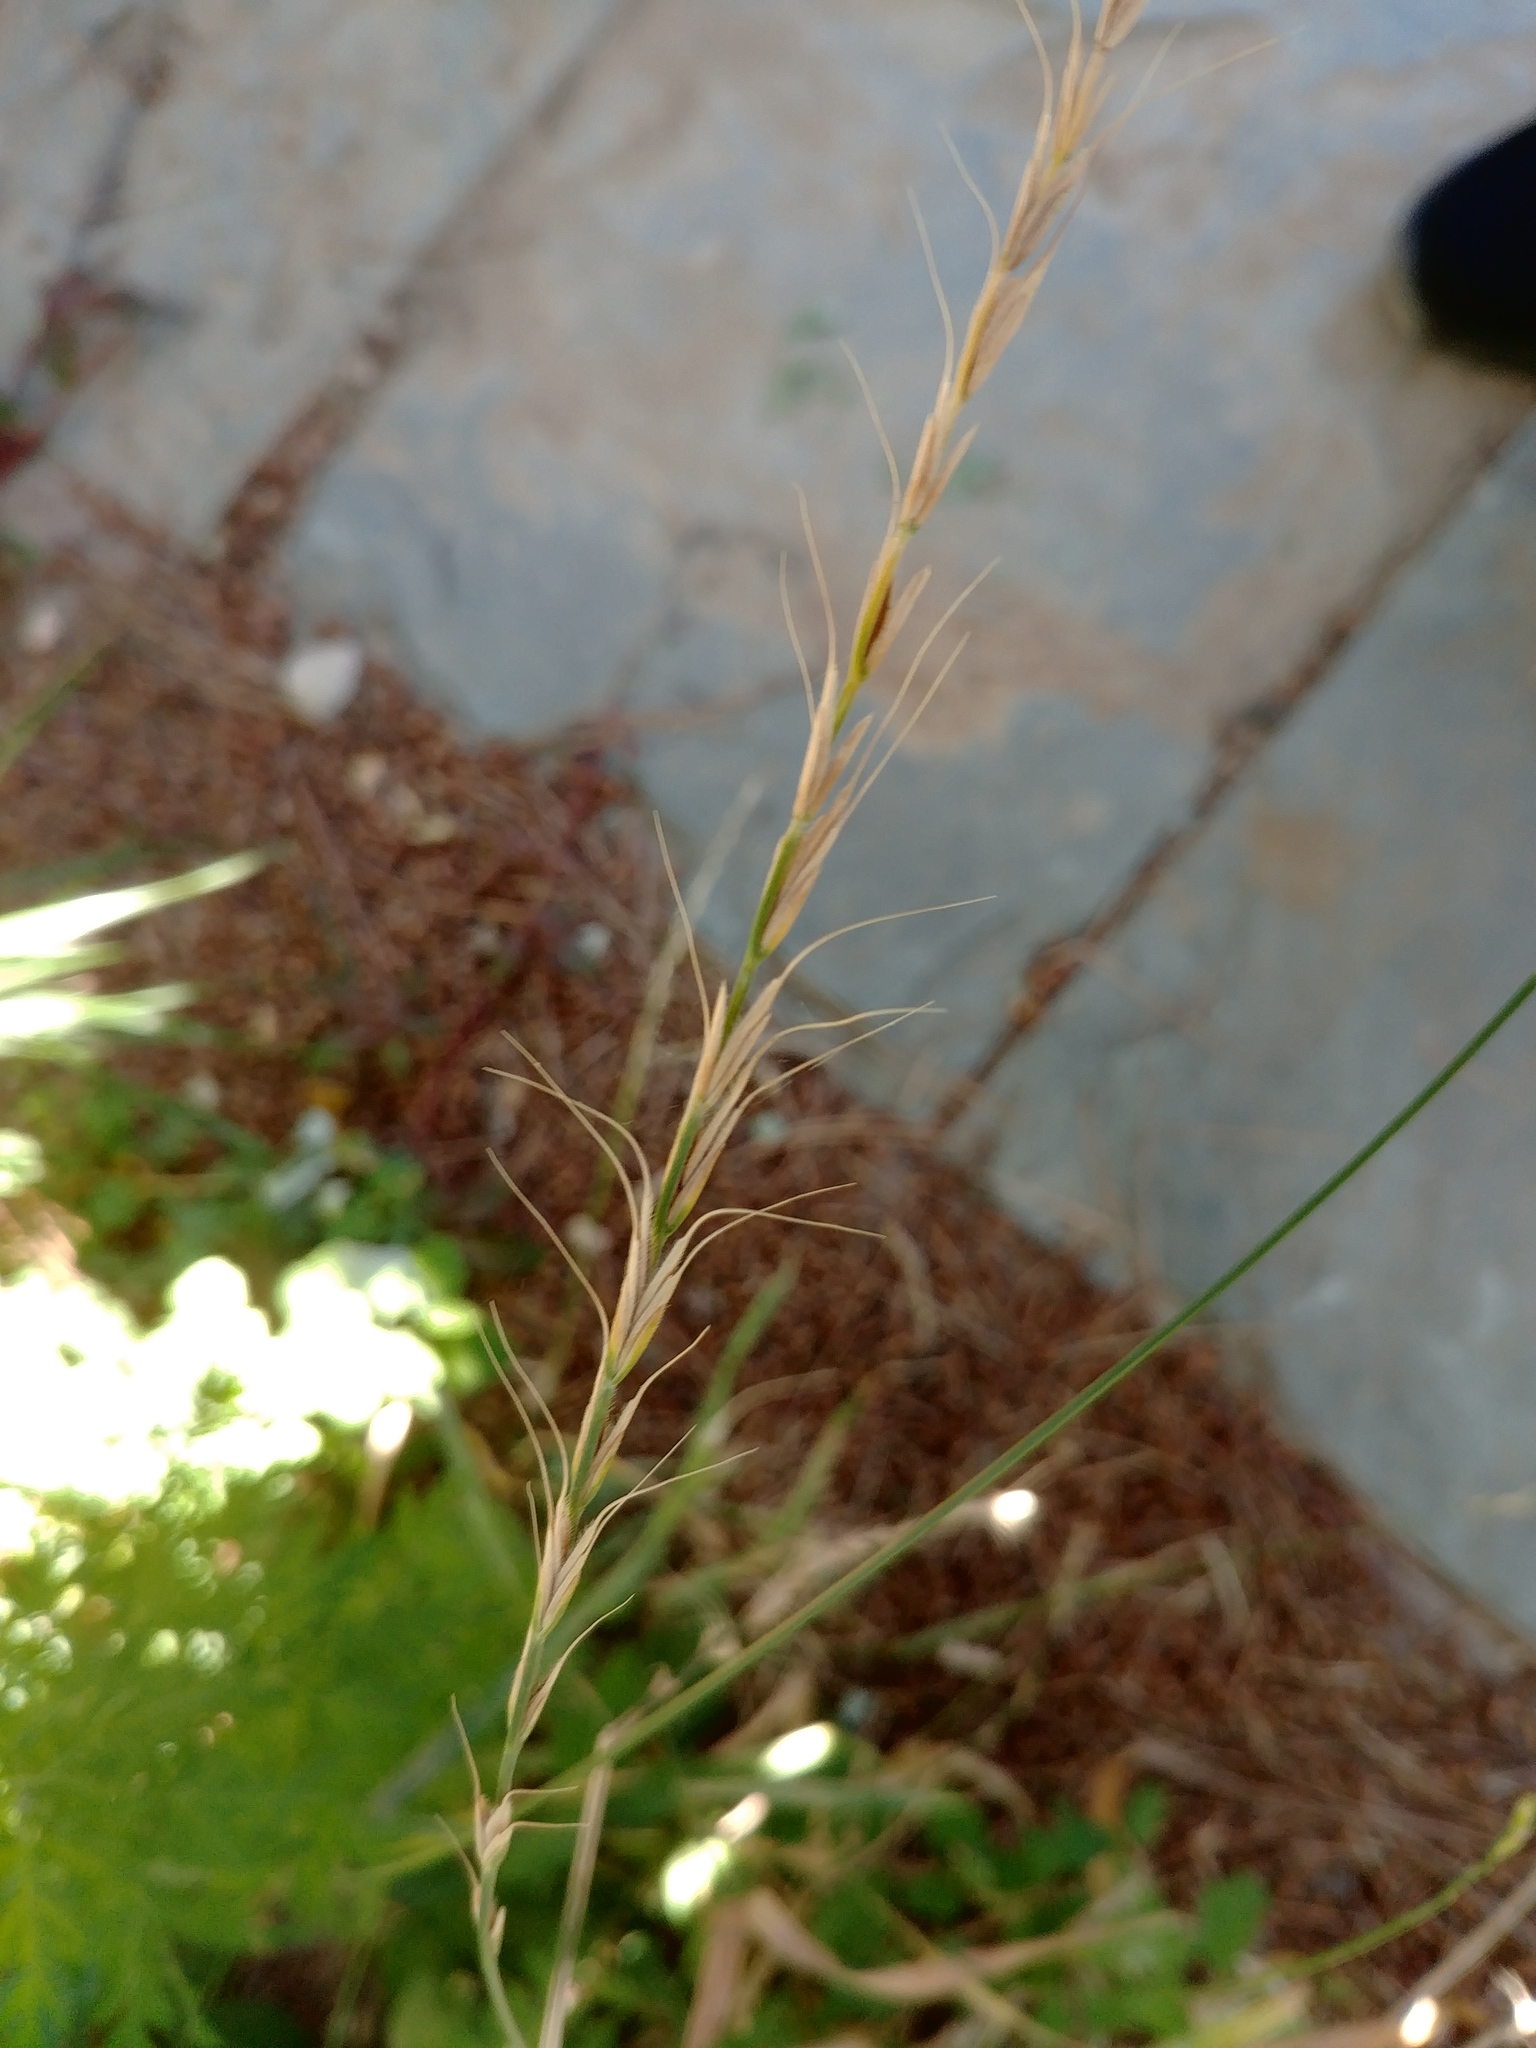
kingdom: Plantae
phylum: Tracheophyta
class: Liliopsida
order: Poales
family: Poaceae
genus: Elymus
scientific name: Elymus ciliaris
